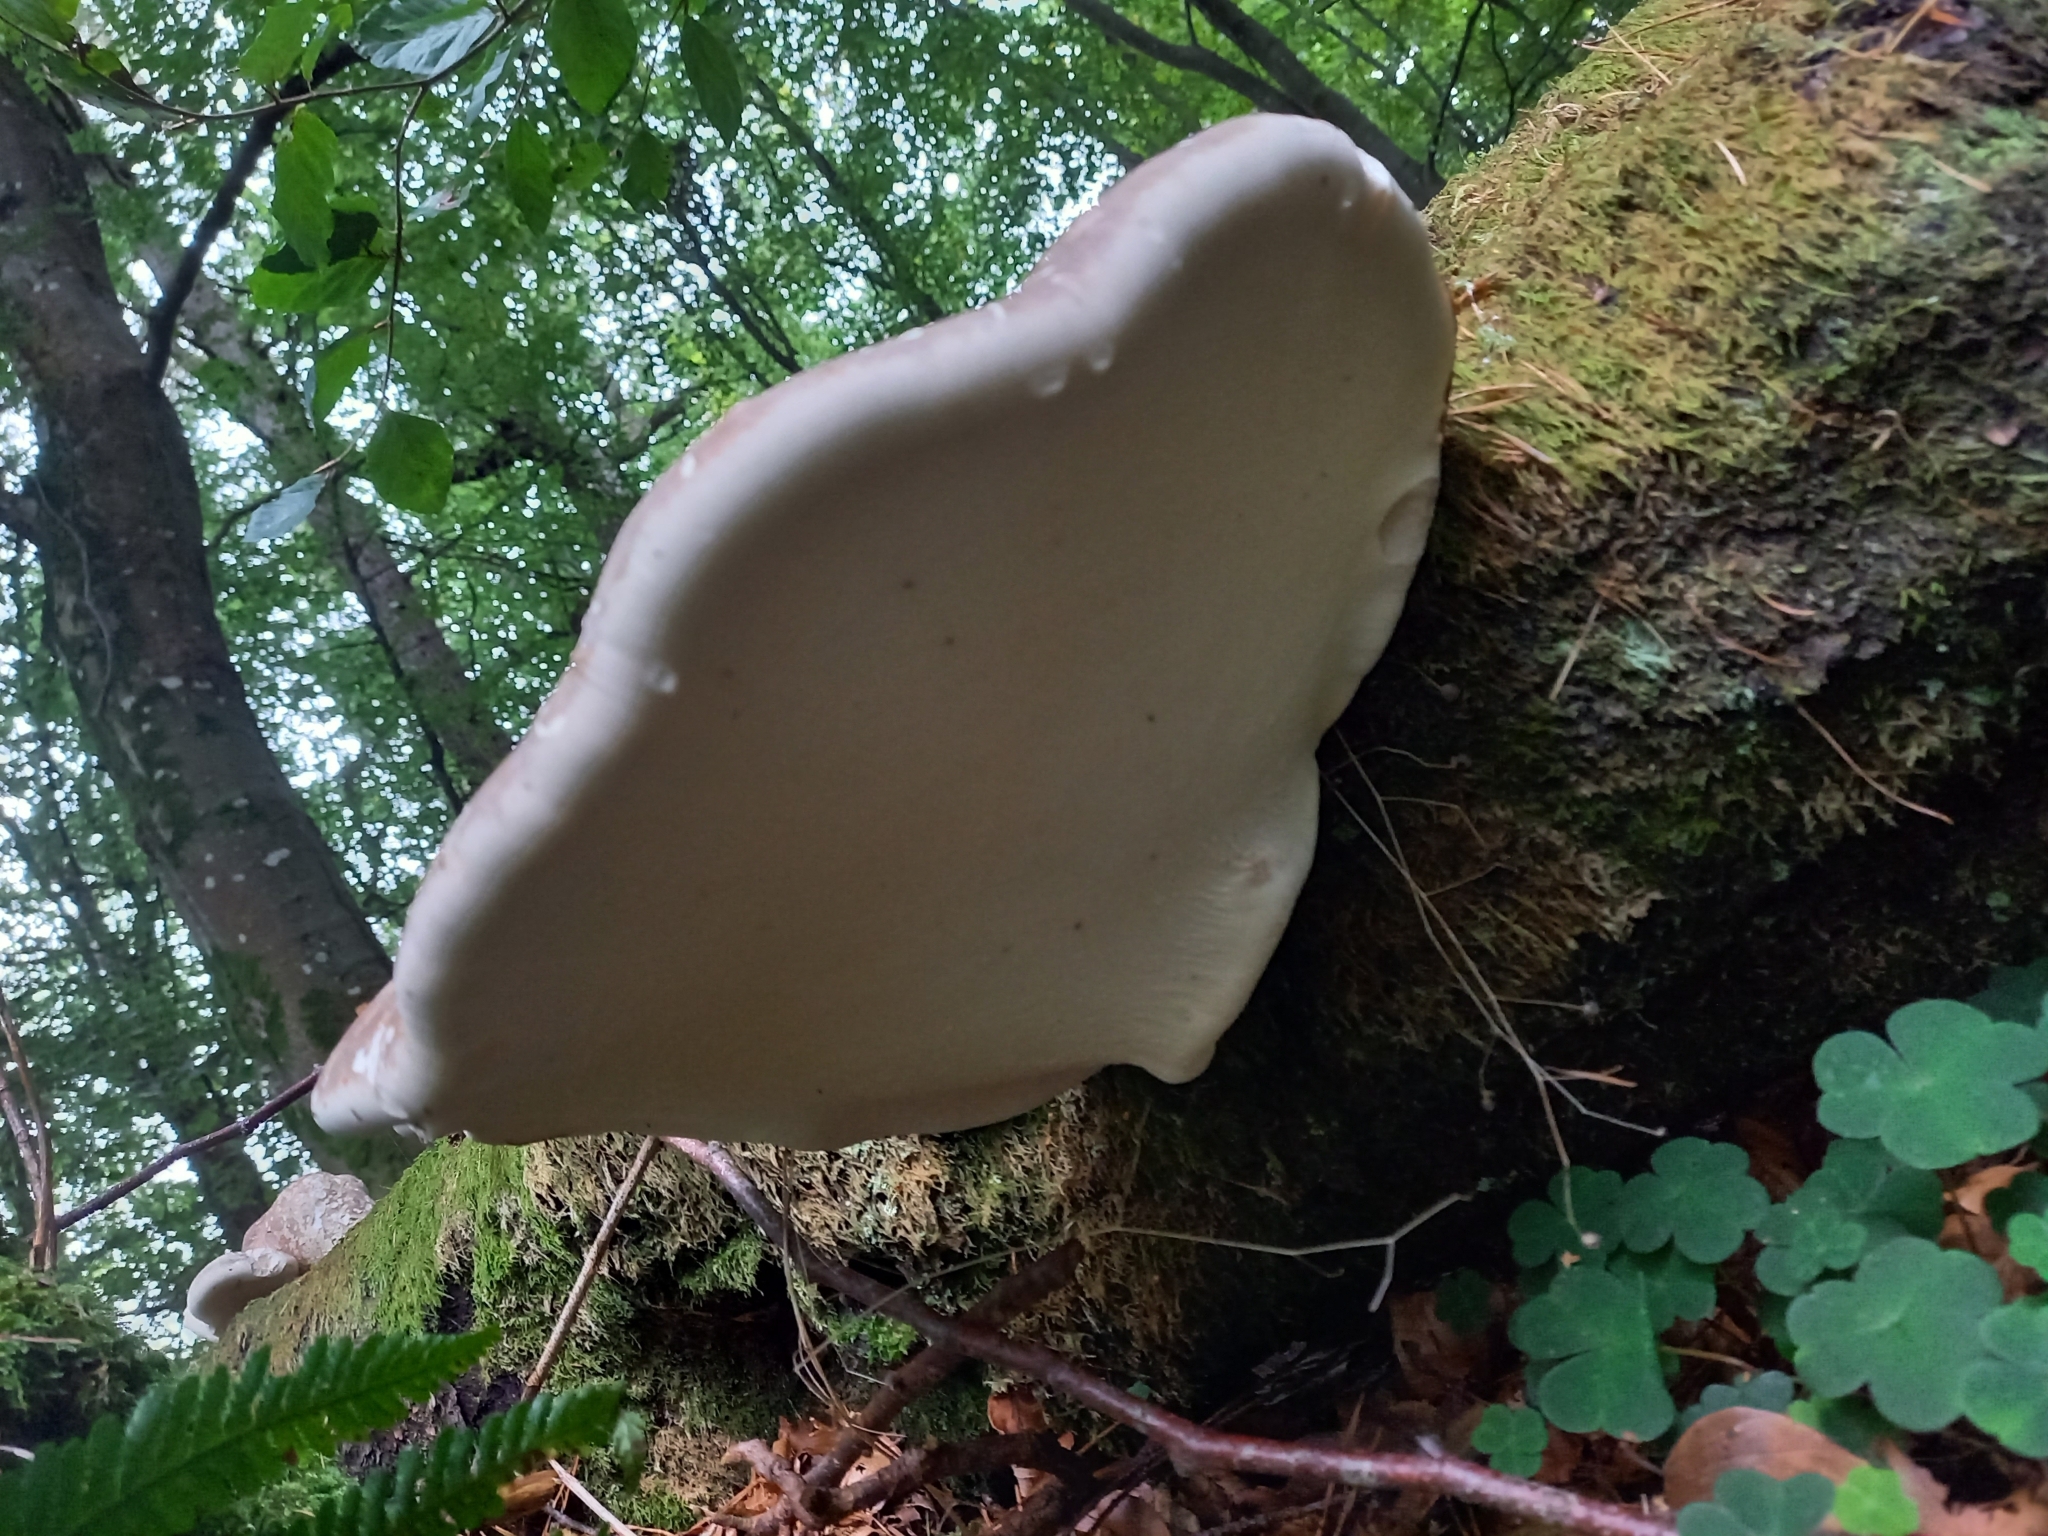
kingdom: Fungi
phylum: Basidiomycota
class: Agaricomycetes
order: Polyporales
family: Fomitopsidaceae
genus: Fomitopsis
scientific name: Fomitopsis betulina
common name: Birch polypore
